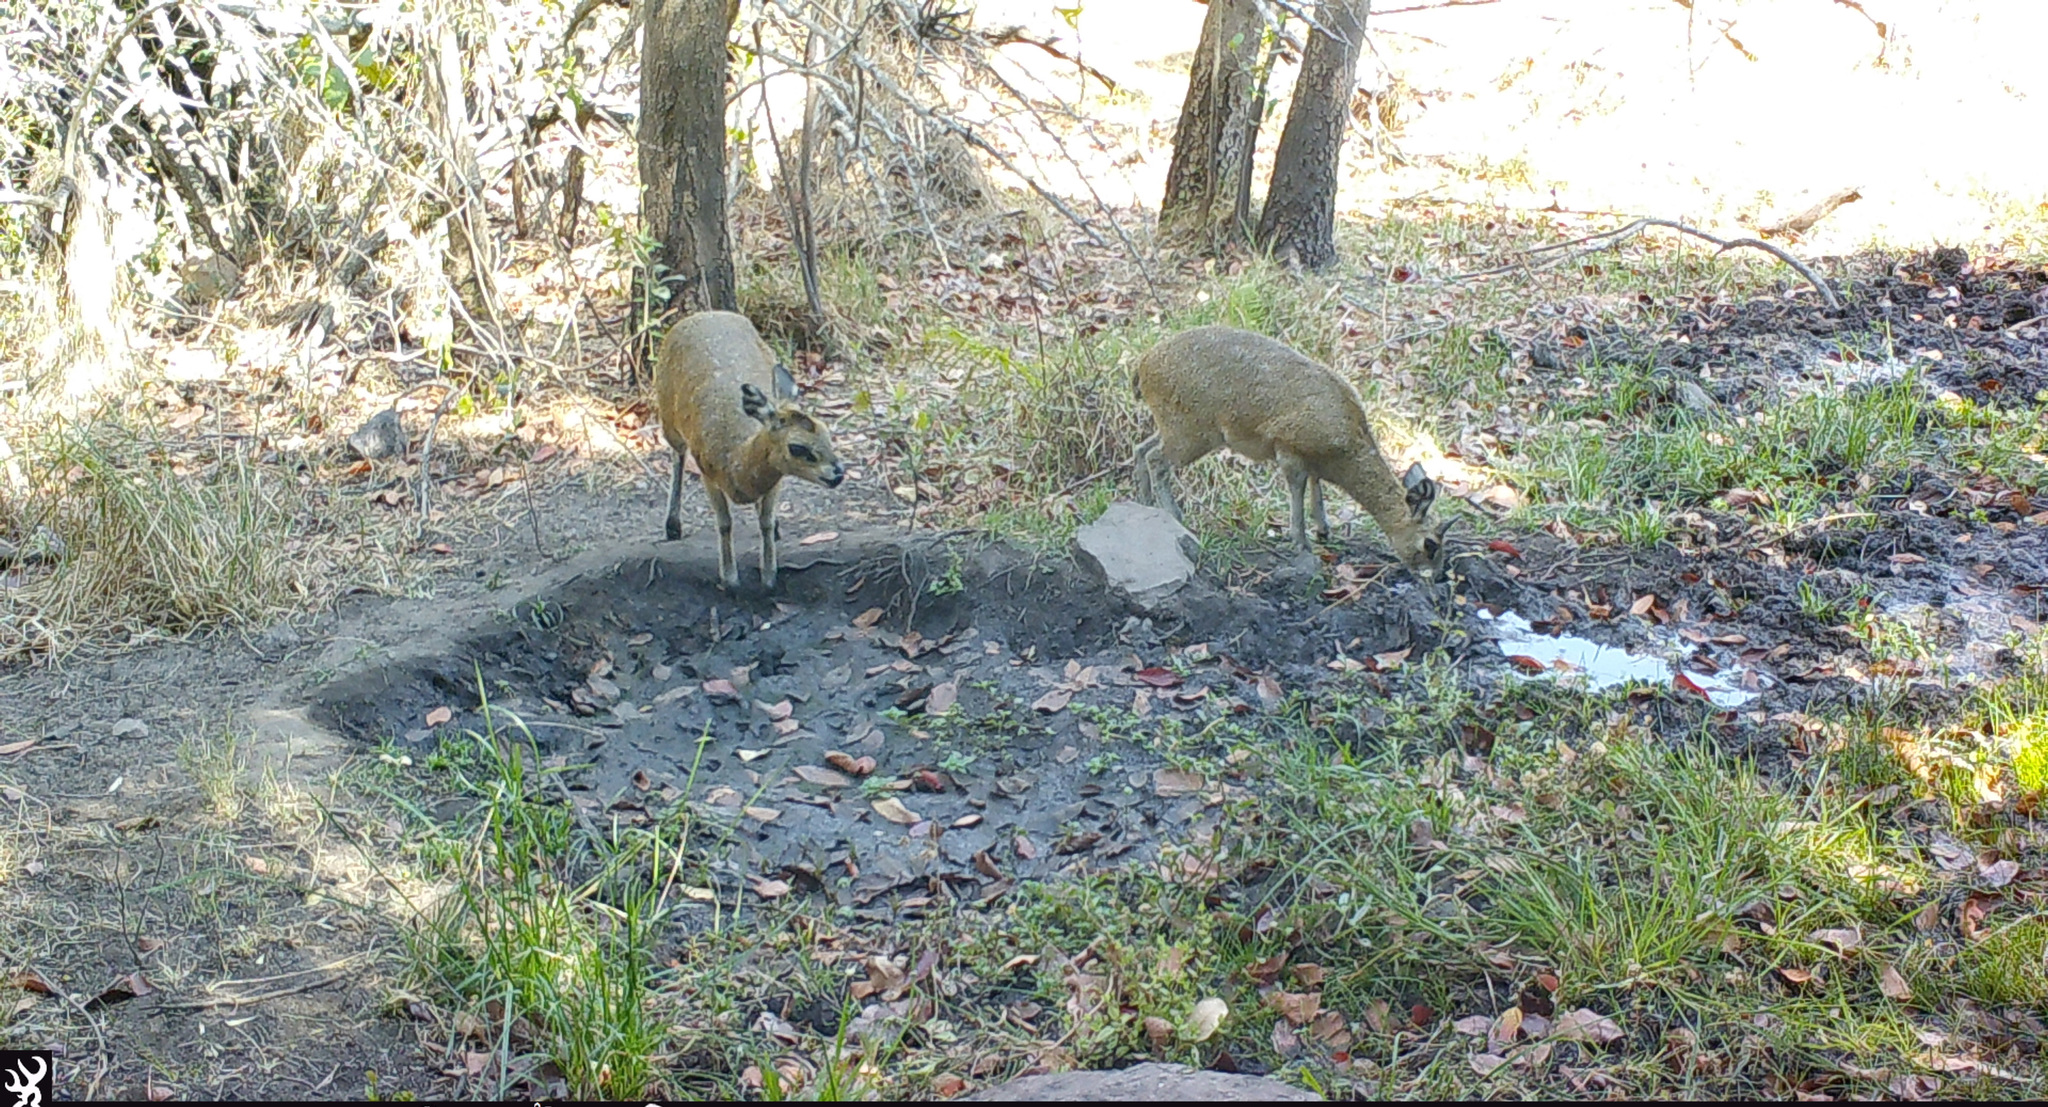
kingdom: Animalia
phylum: Chordata
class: Mammalia
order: Artiodactyla
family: Bovidae
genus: Oreotragus
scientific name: Oreotragus oreotragus
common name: Klipspringer
